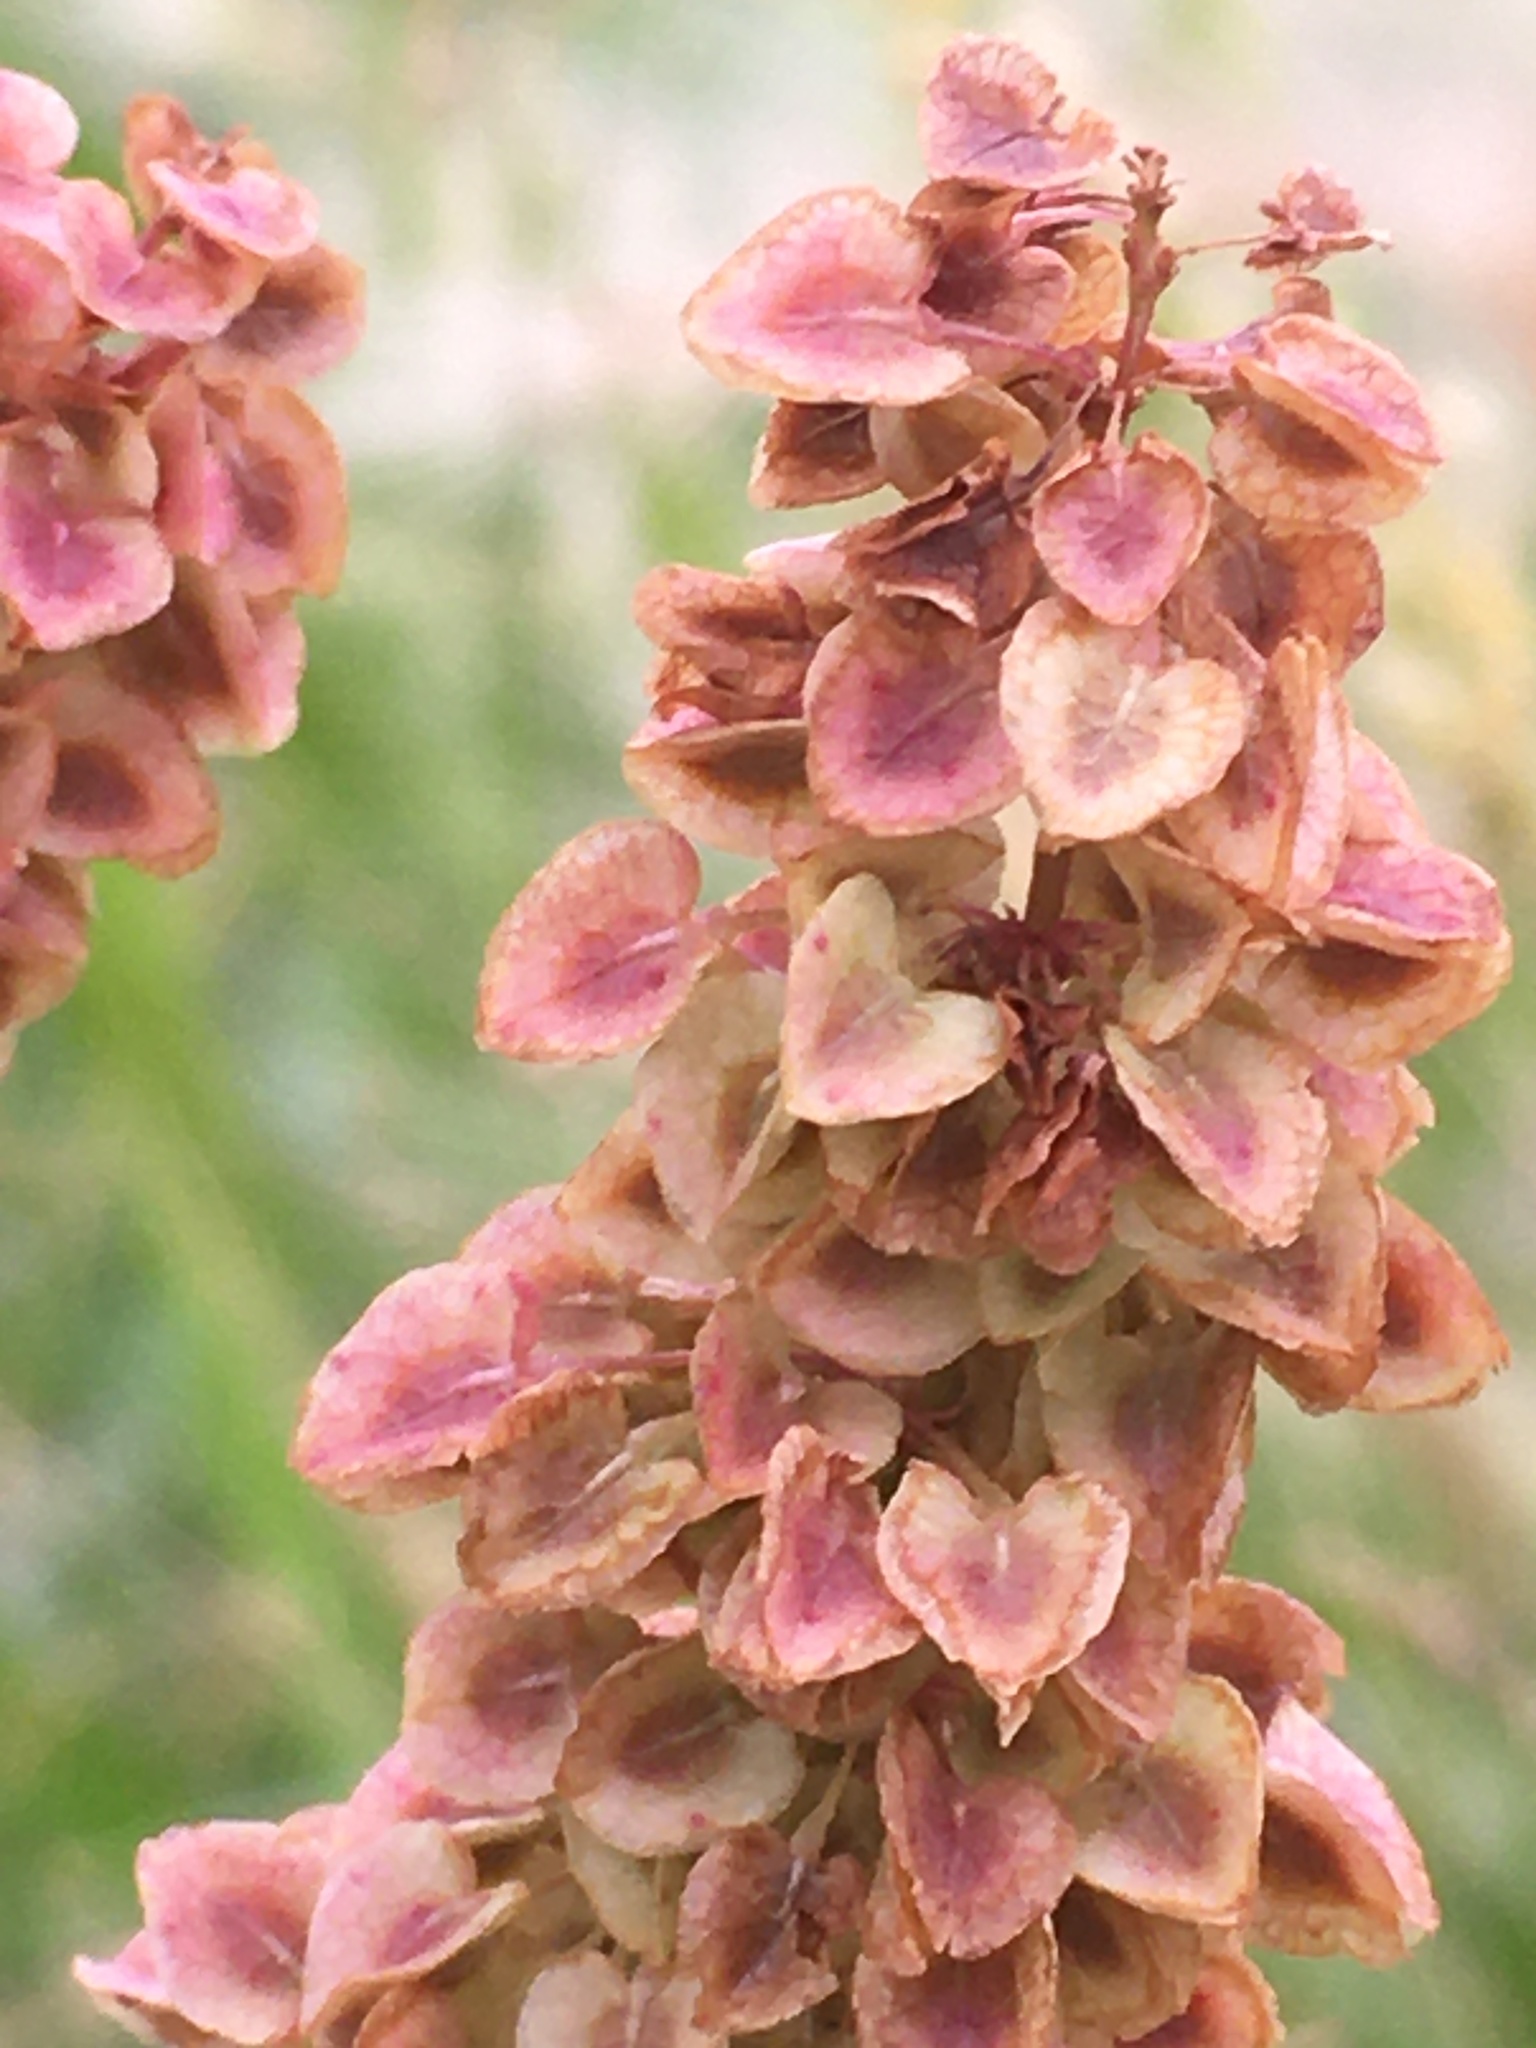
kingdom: Plantae
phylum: Tracheophyta
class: Magnoliopsida
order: Caryophyllales
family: Polygonaceae
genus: Rumex
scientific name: Rumex occidentalis
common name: Western dock
